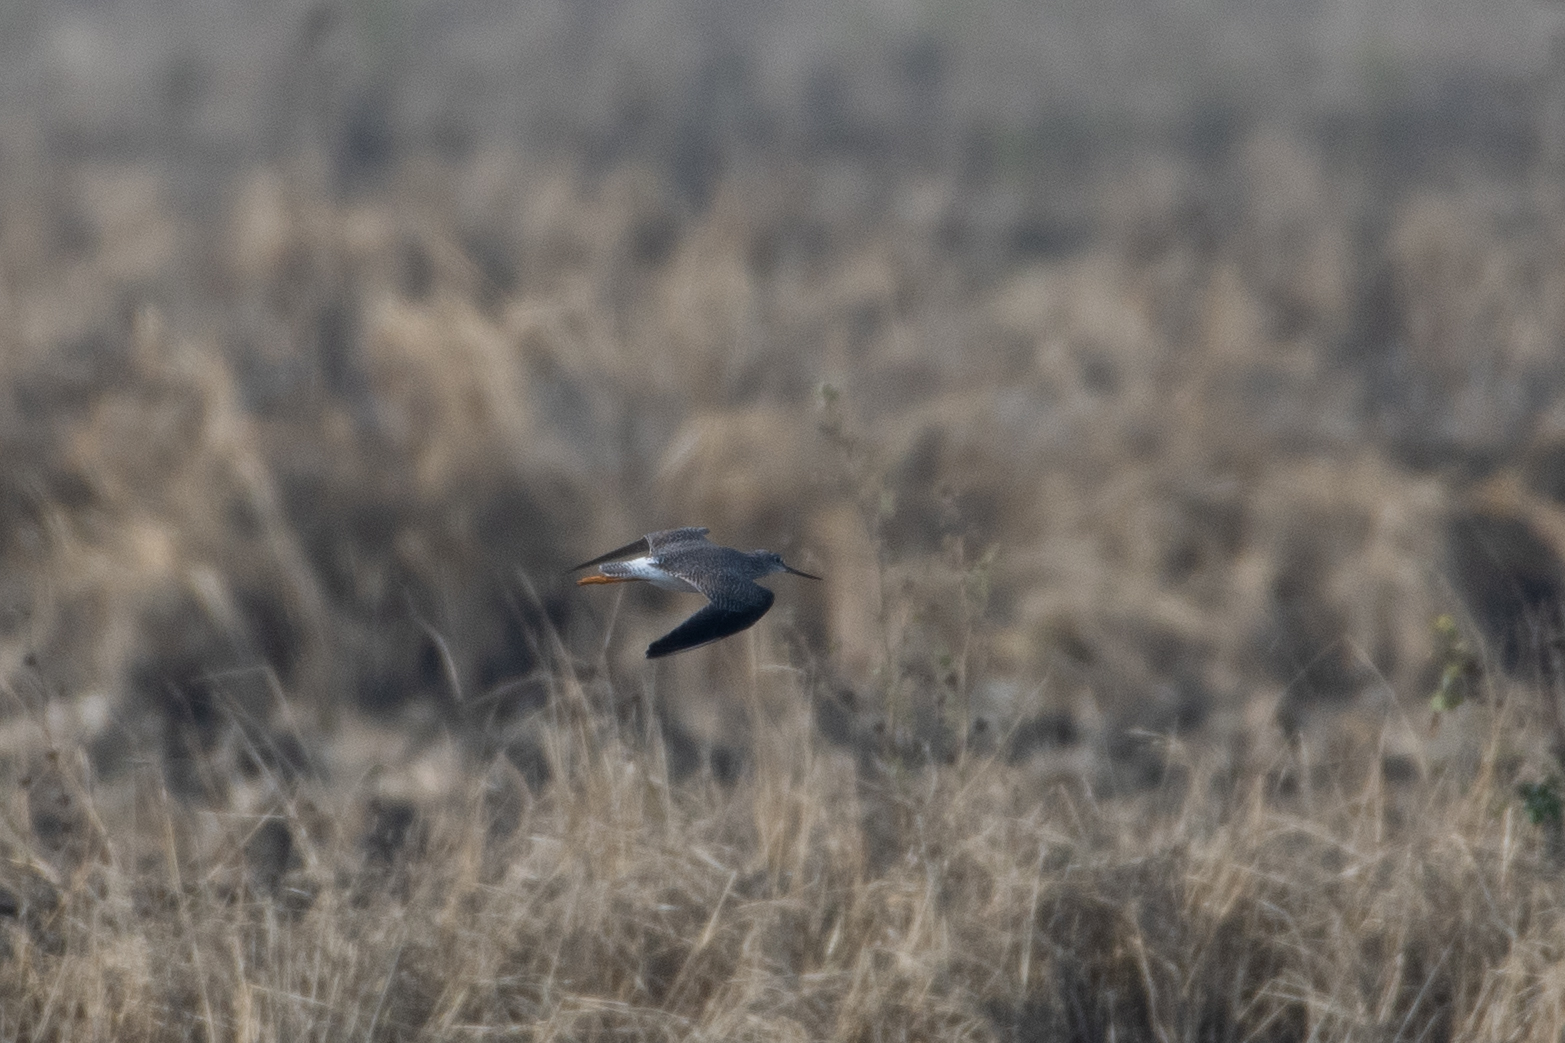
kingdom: Animalia
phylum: Chordata
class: Aves
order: Charadriiformes
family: Scolopacidae
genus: Tringa
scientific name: Tringa melanoleuca
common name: Greater yellowlegs
